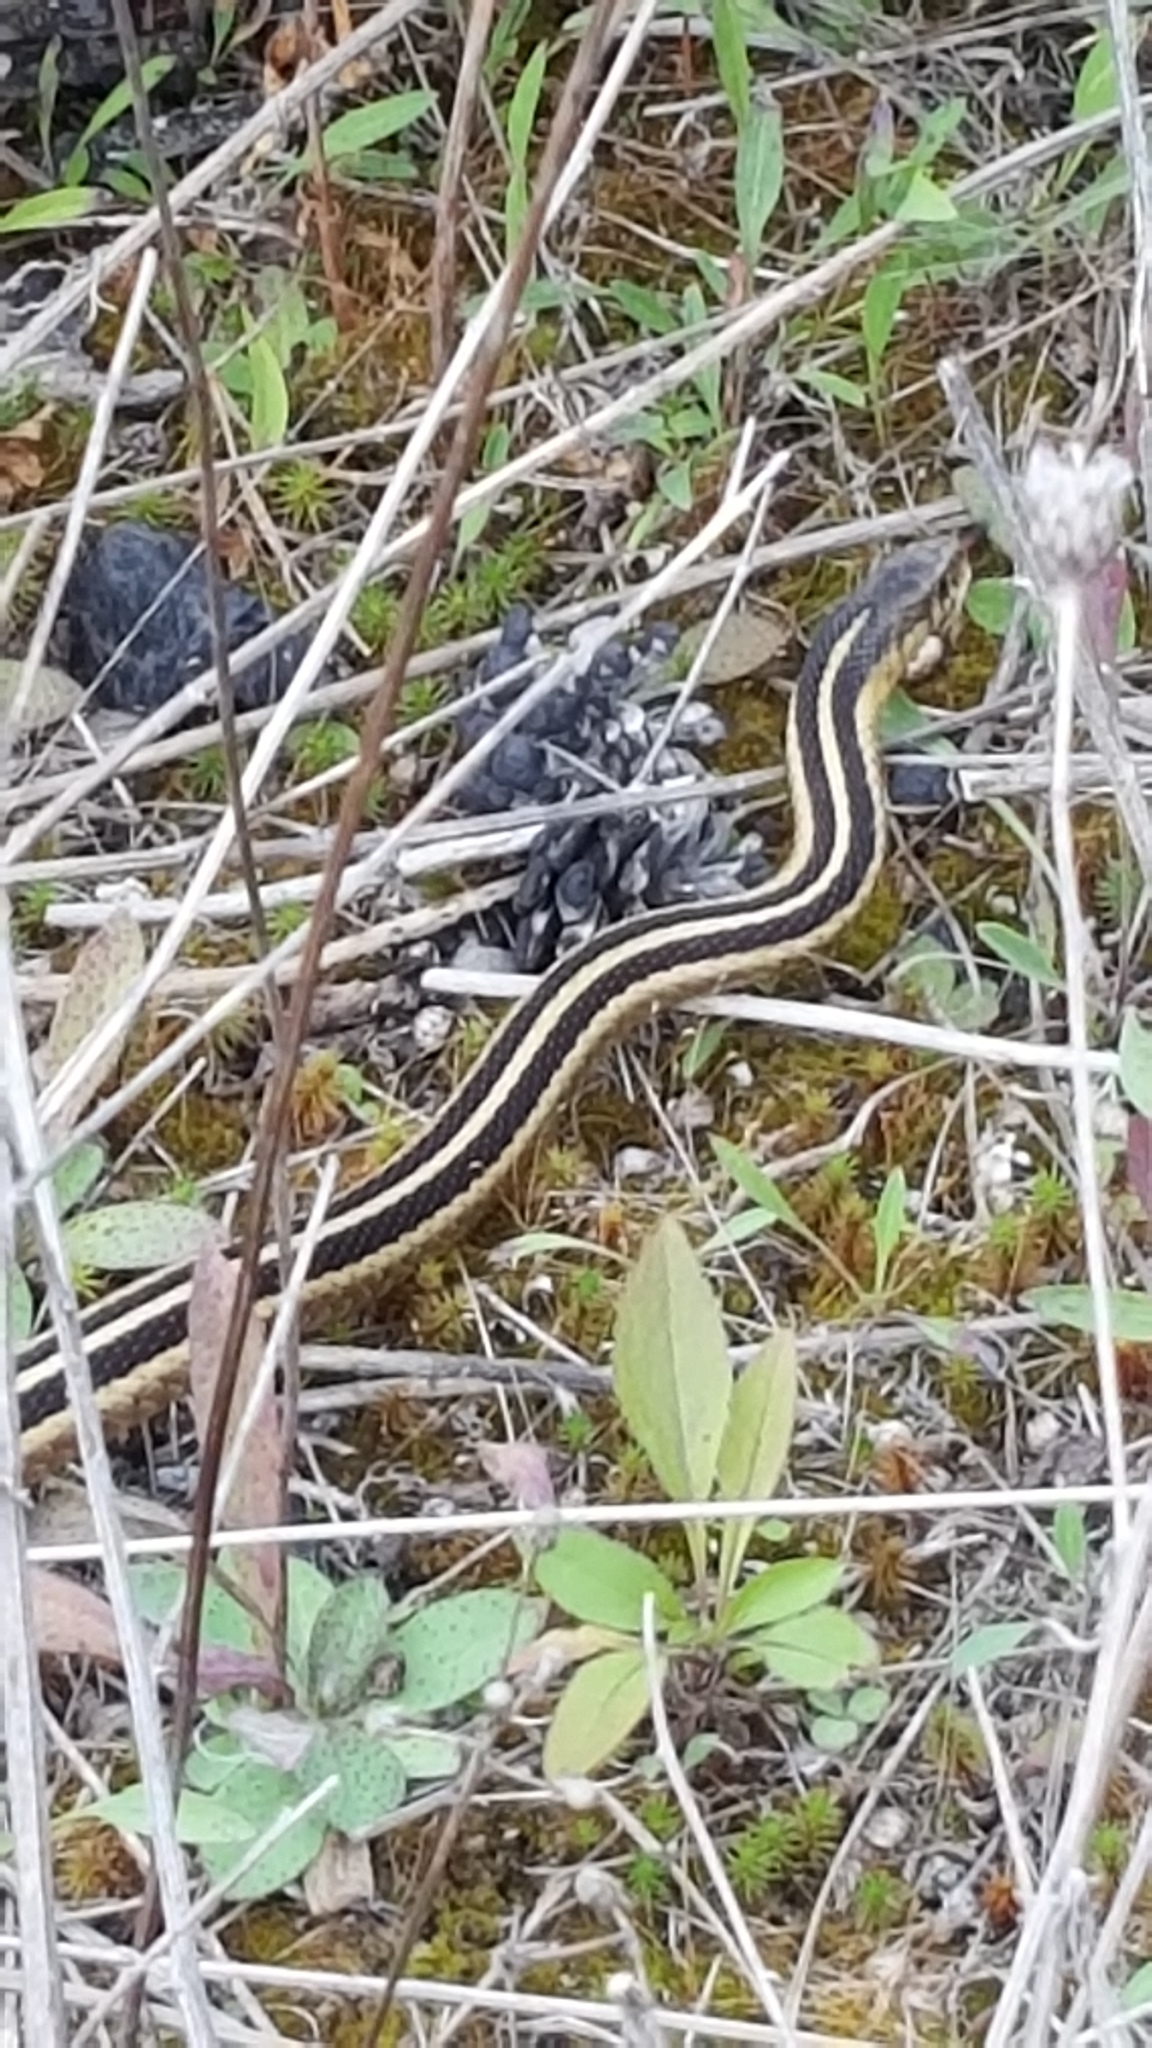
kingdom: Animalia
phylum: Chordata
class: Squamata
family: Colubridae
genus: Thamnophis
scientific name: Thamnophis sirtalis
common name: Common garter snake
